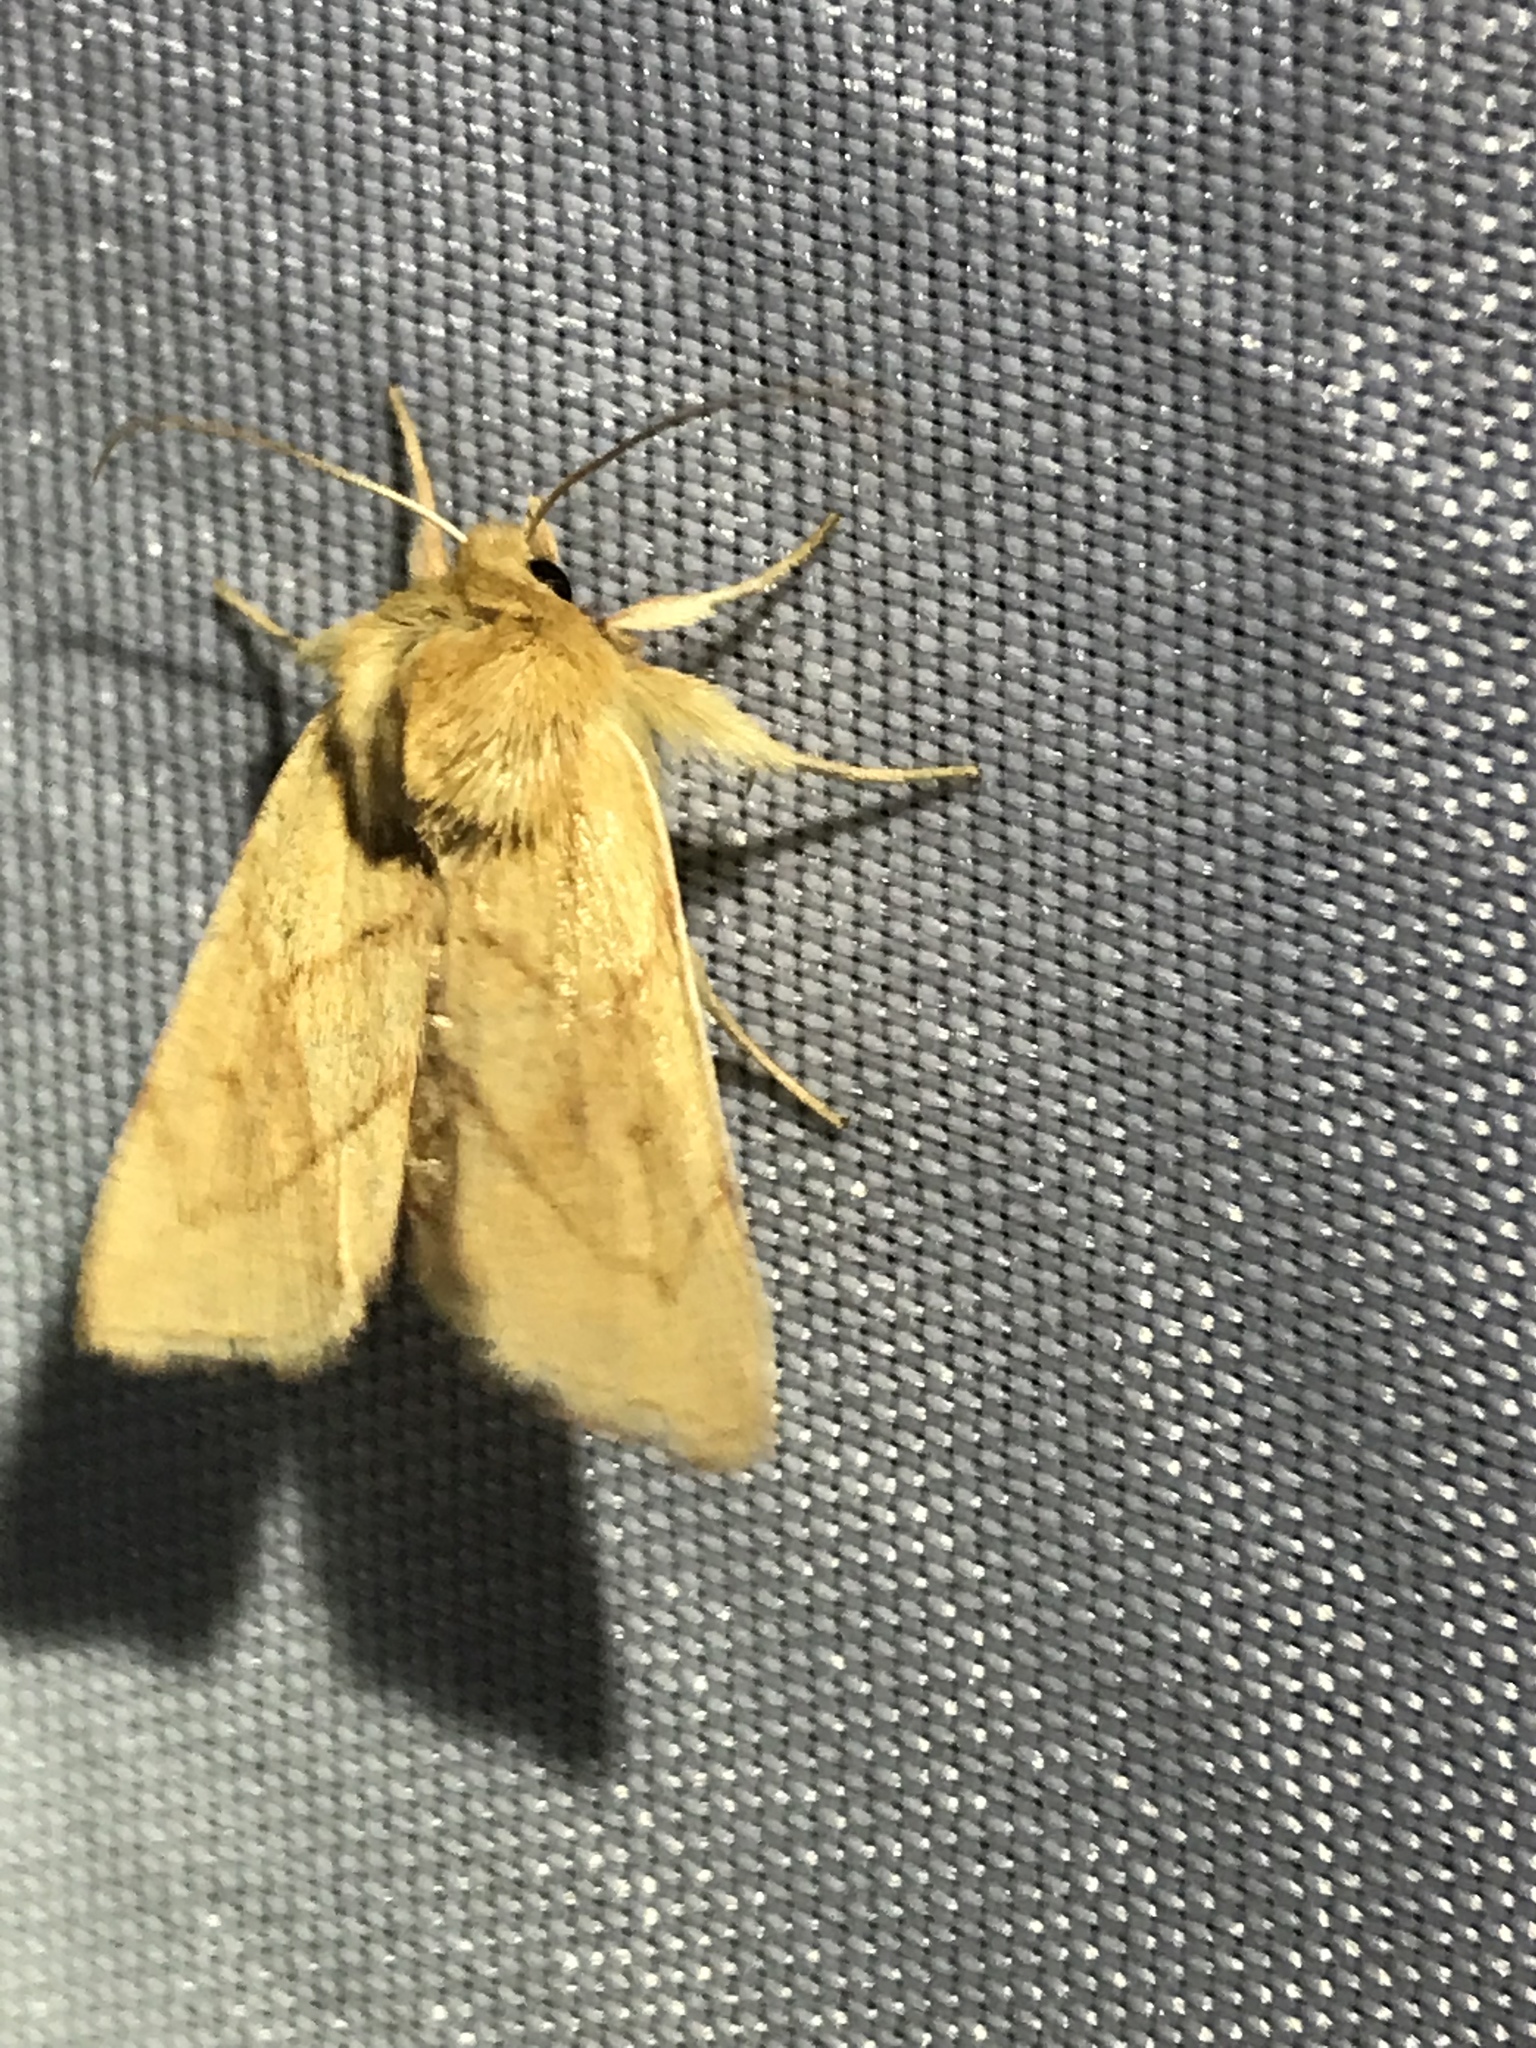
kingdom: Animalia
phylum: Arthropoda
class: Insecta
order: Lepidoptera
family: Noctuidae
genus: Zosteropoda
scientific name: Zosteropoda hirtipes
